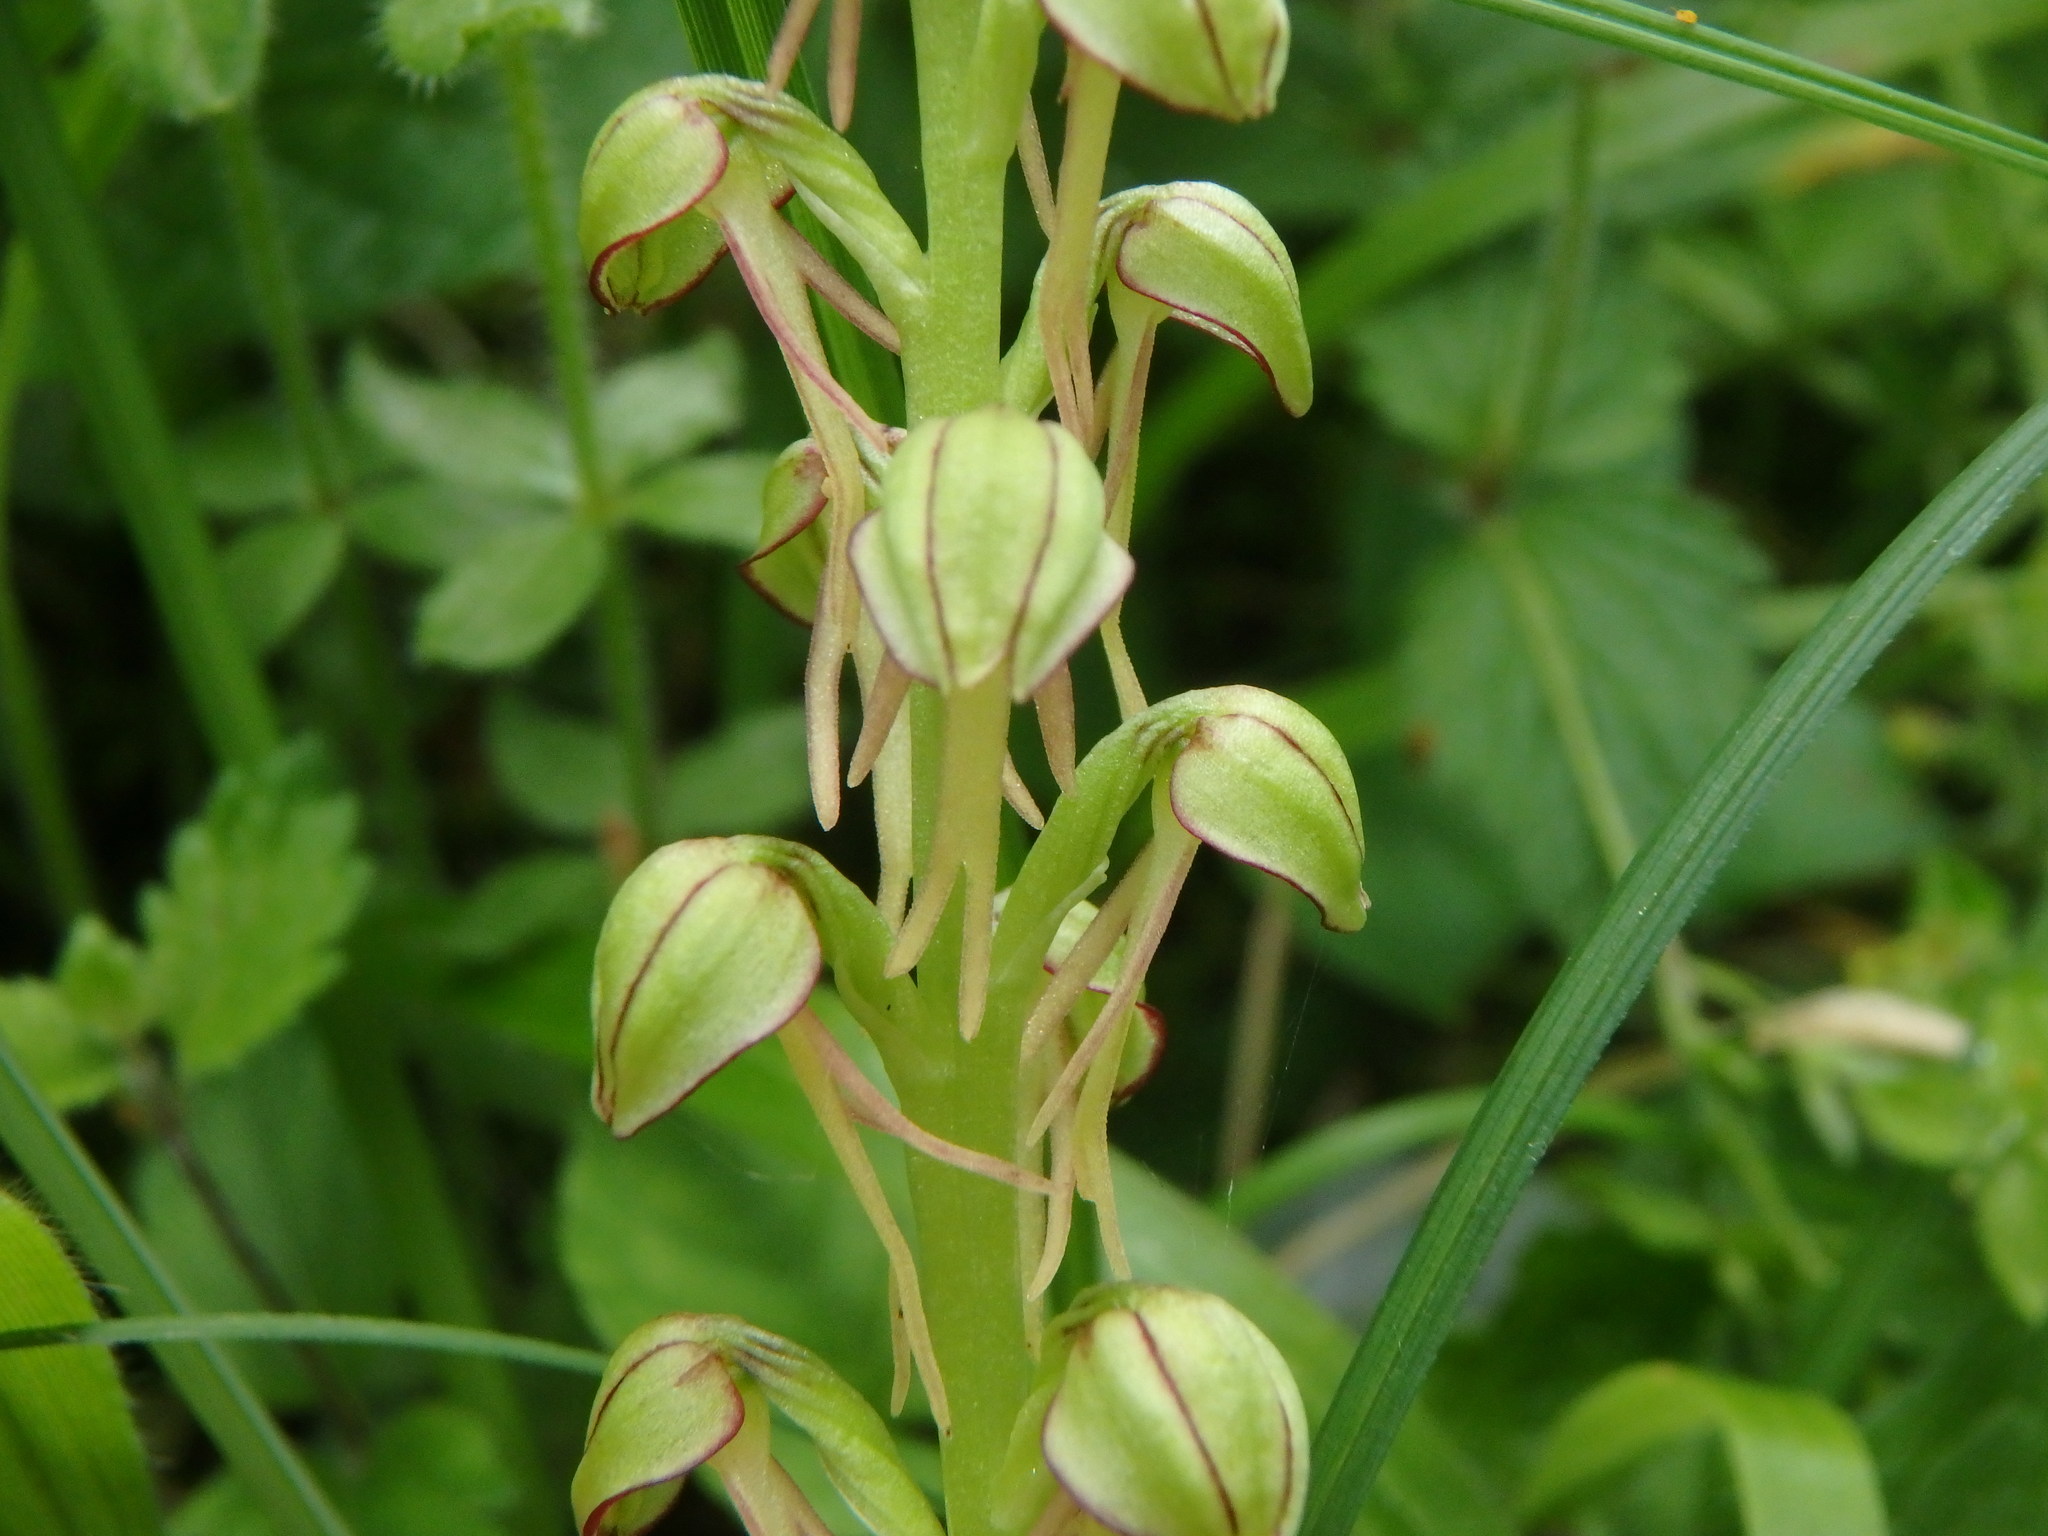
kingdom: Plantae
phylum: Tracheophyta
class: Liliopsida
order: Asparagales
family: Orchidaceae
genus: Orchis
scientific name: Orchis anthropophora
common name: Man orchid
